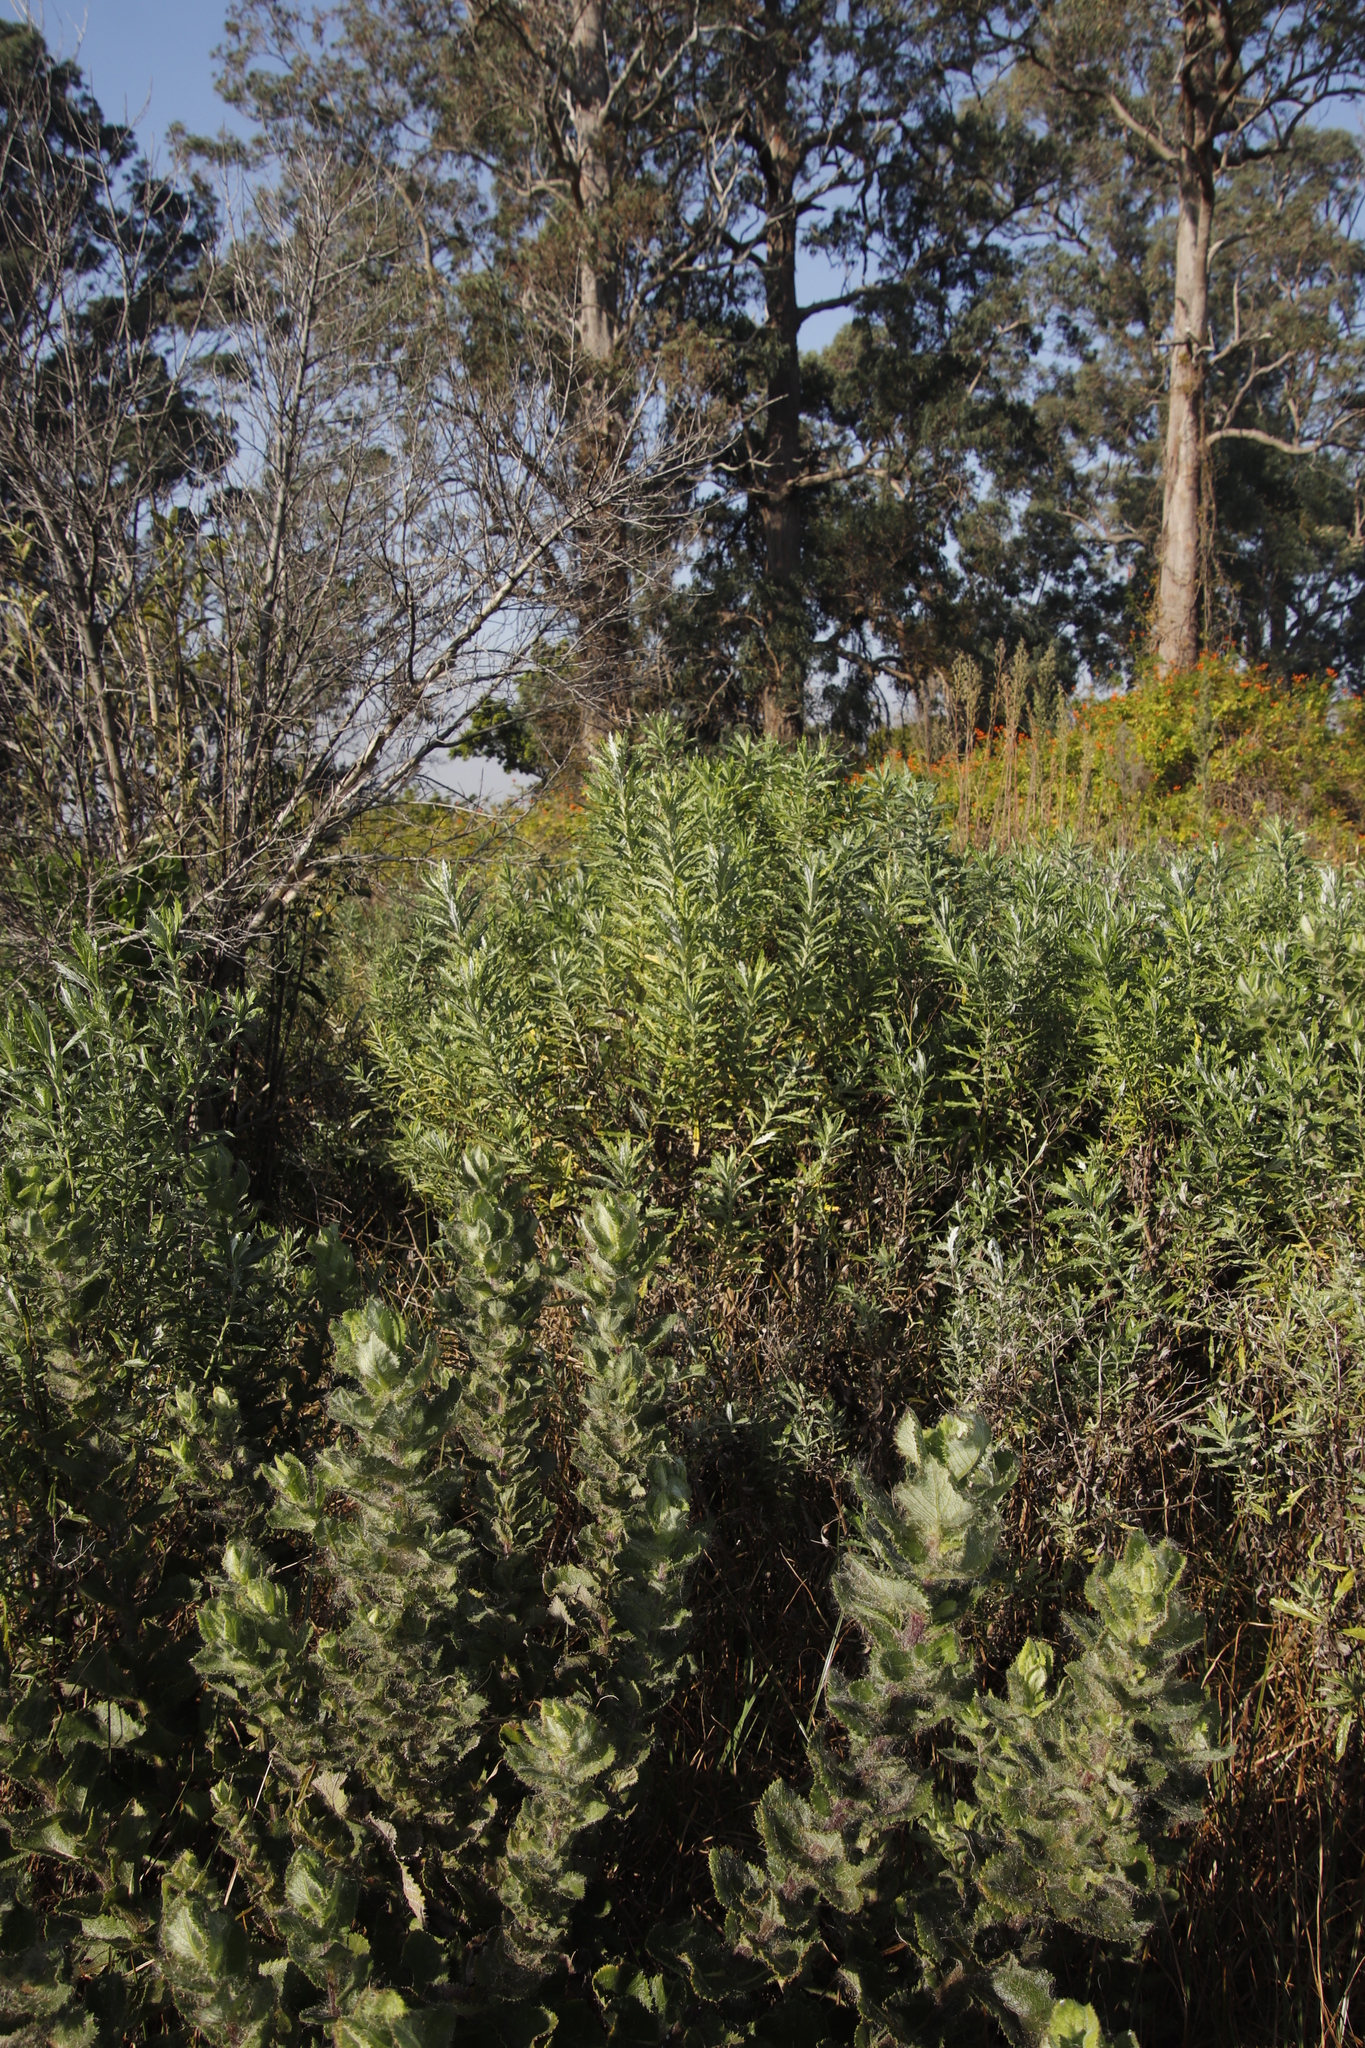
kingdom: Plantae
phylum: Tracheophyta
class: Magnoliopsida
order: Asterales
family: Asteraceae
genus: Senecio
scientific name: Senecio pterophorus
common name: Shoddy ragwort
